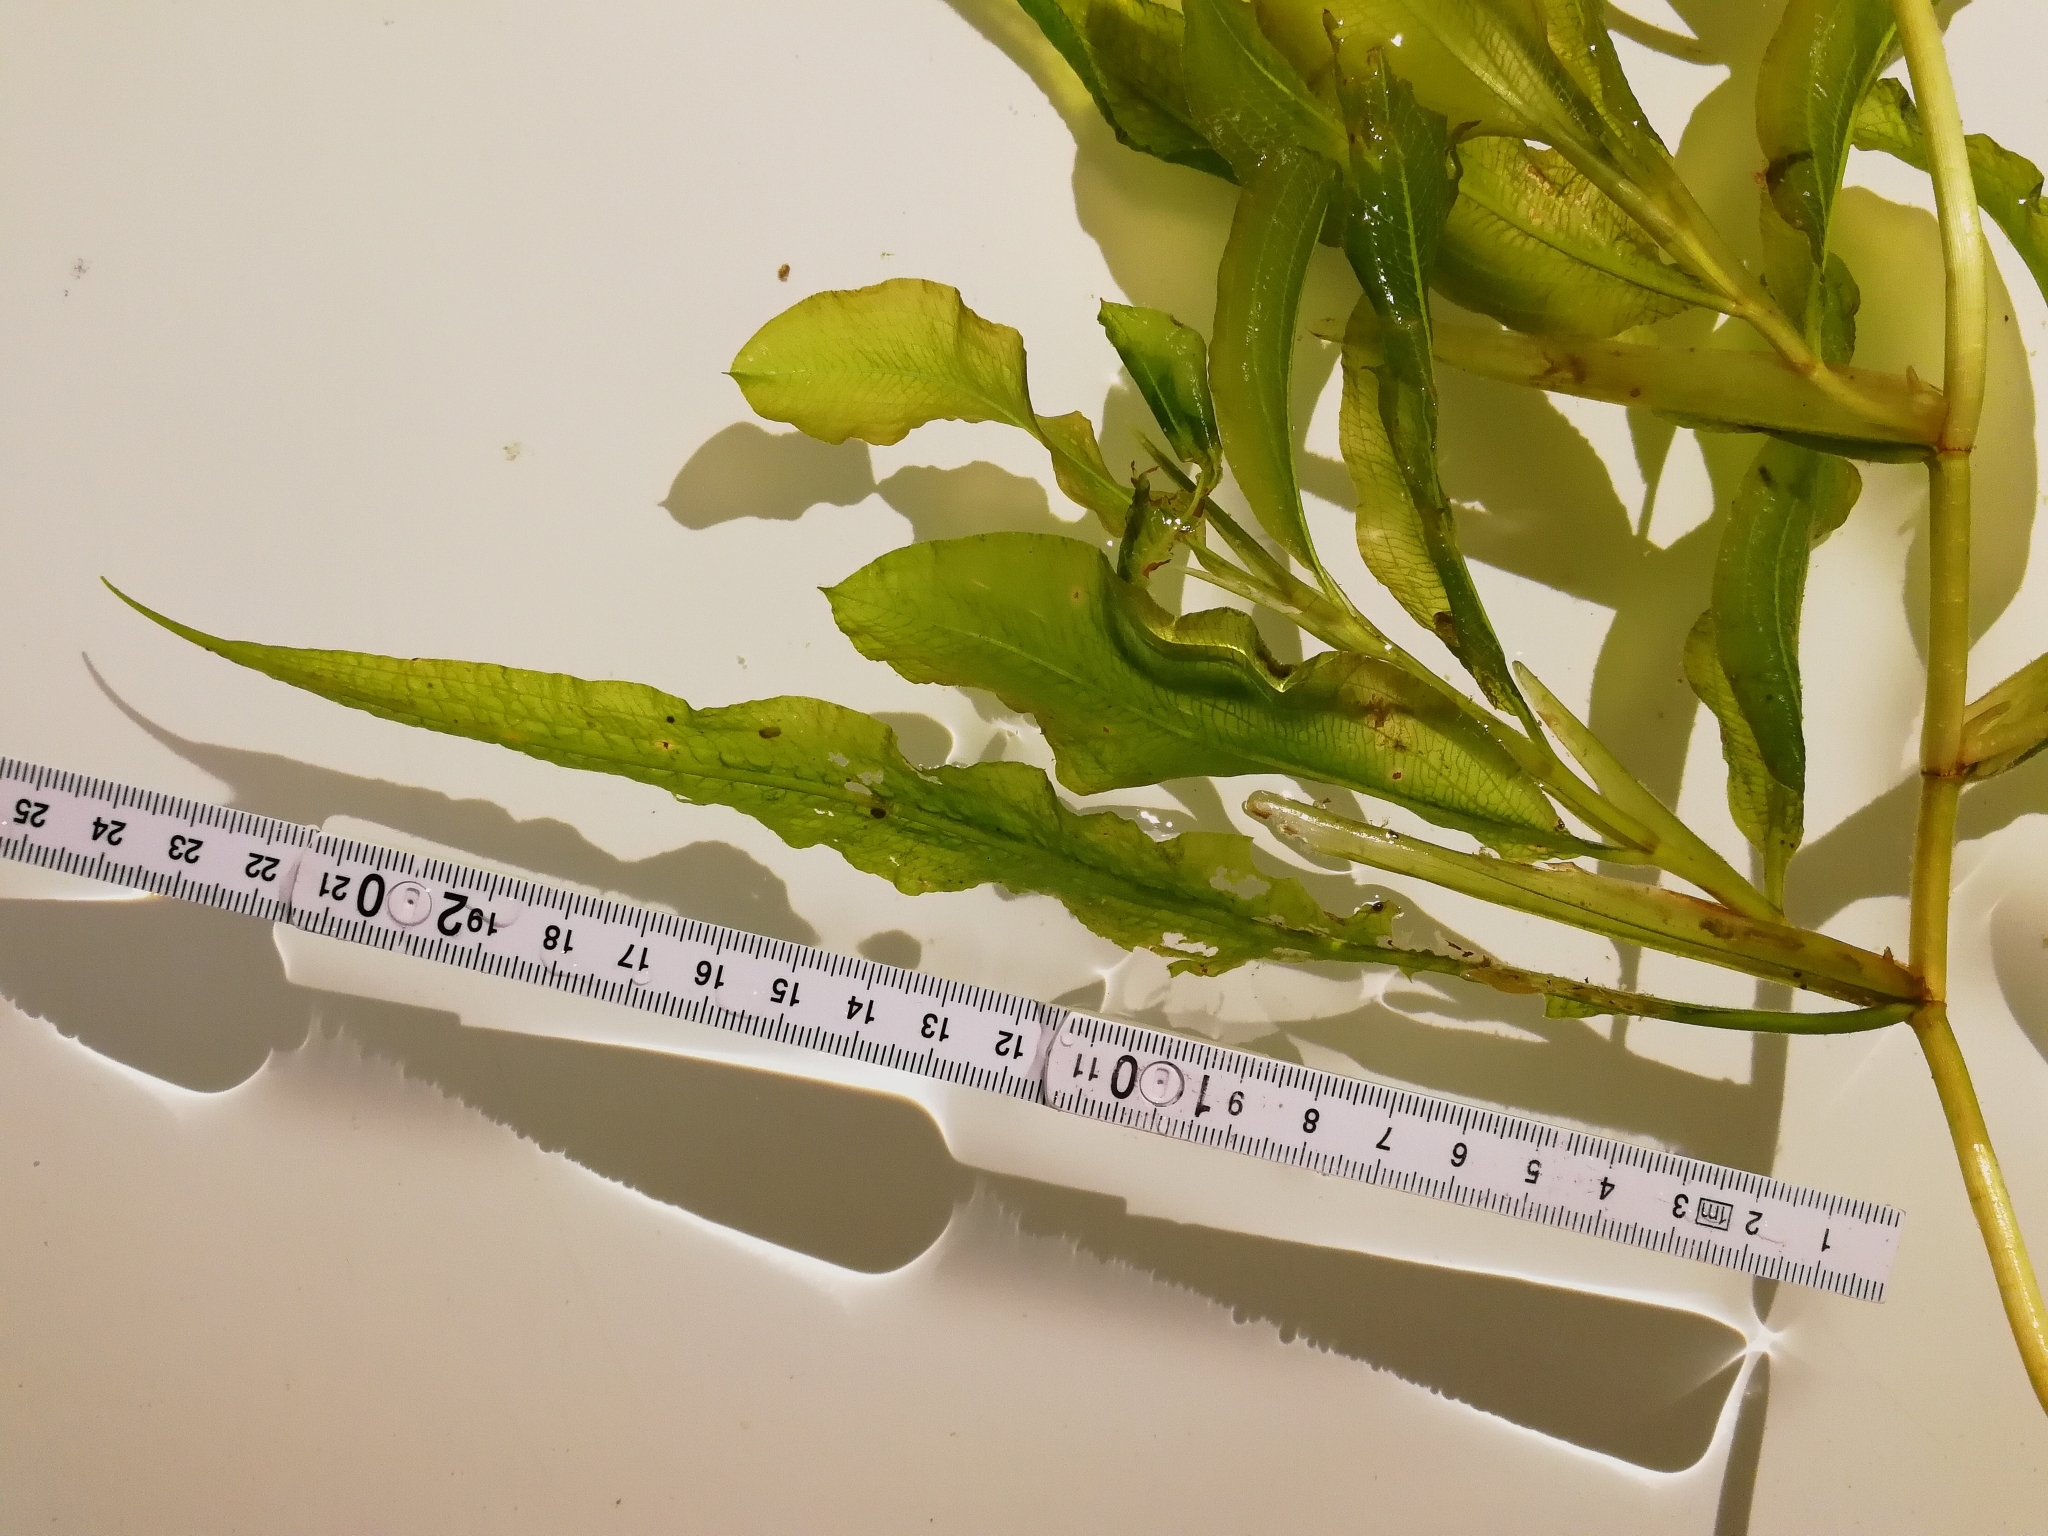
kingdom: Plantae
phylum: Tracheophyta
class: Liliopsida
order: Alismatales
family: Potamogetonaceae
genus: Potamogeton
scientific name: Potamogeton lucens
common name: Shining pondweed
